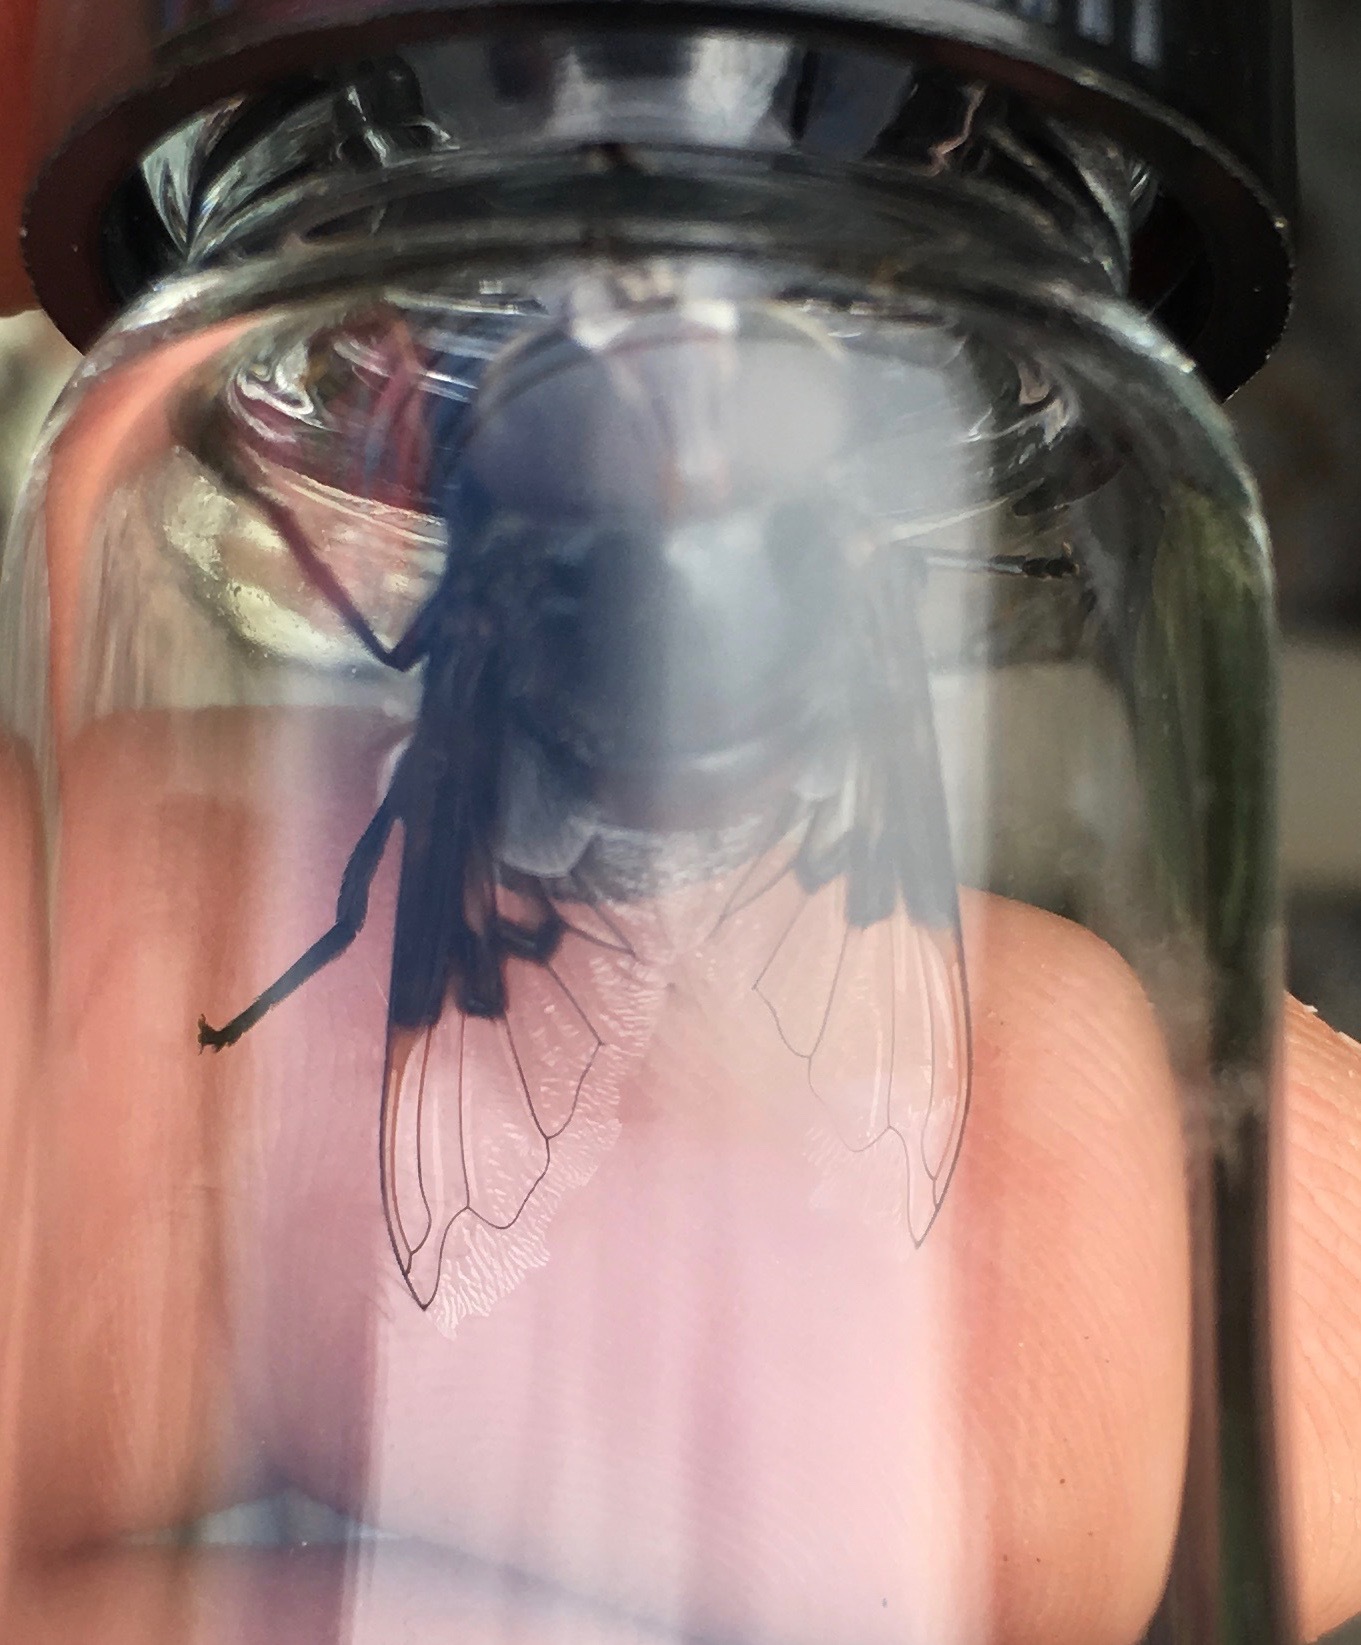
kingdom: Animalia
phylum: Arthropoda
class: Insecta
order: Diptera
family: Syrphidae
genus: Copestylum
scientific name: Copestylum
